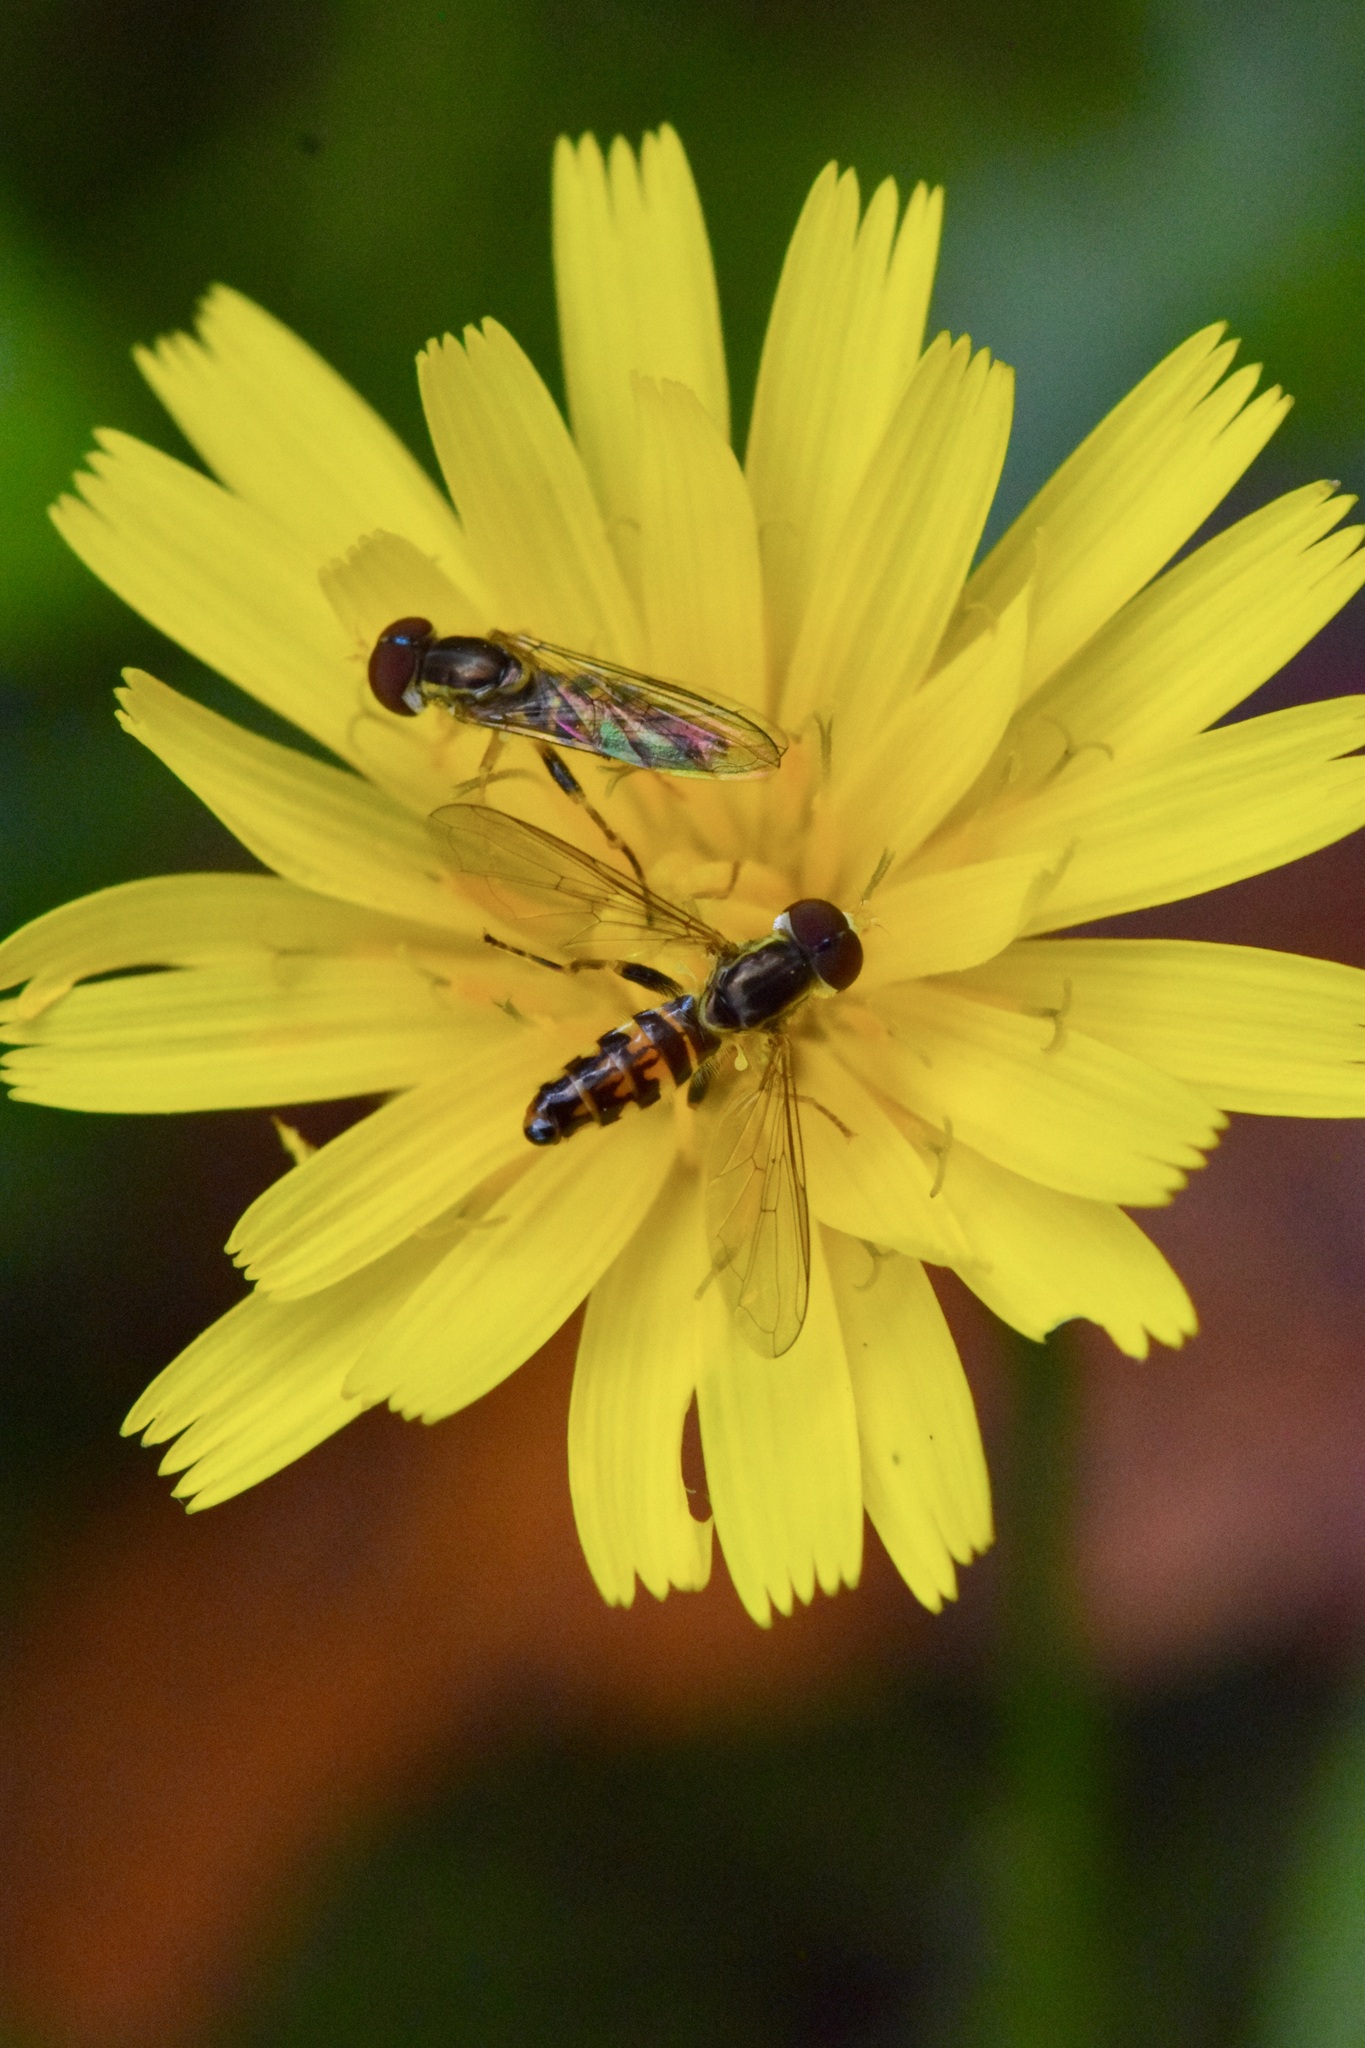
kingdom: Animalia
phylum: Arthropoda
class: Insecta
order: Diptera
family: Syrphidae
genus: Toxomerus
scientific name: Toxomerus geminatus
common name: Eastern calligrapher
